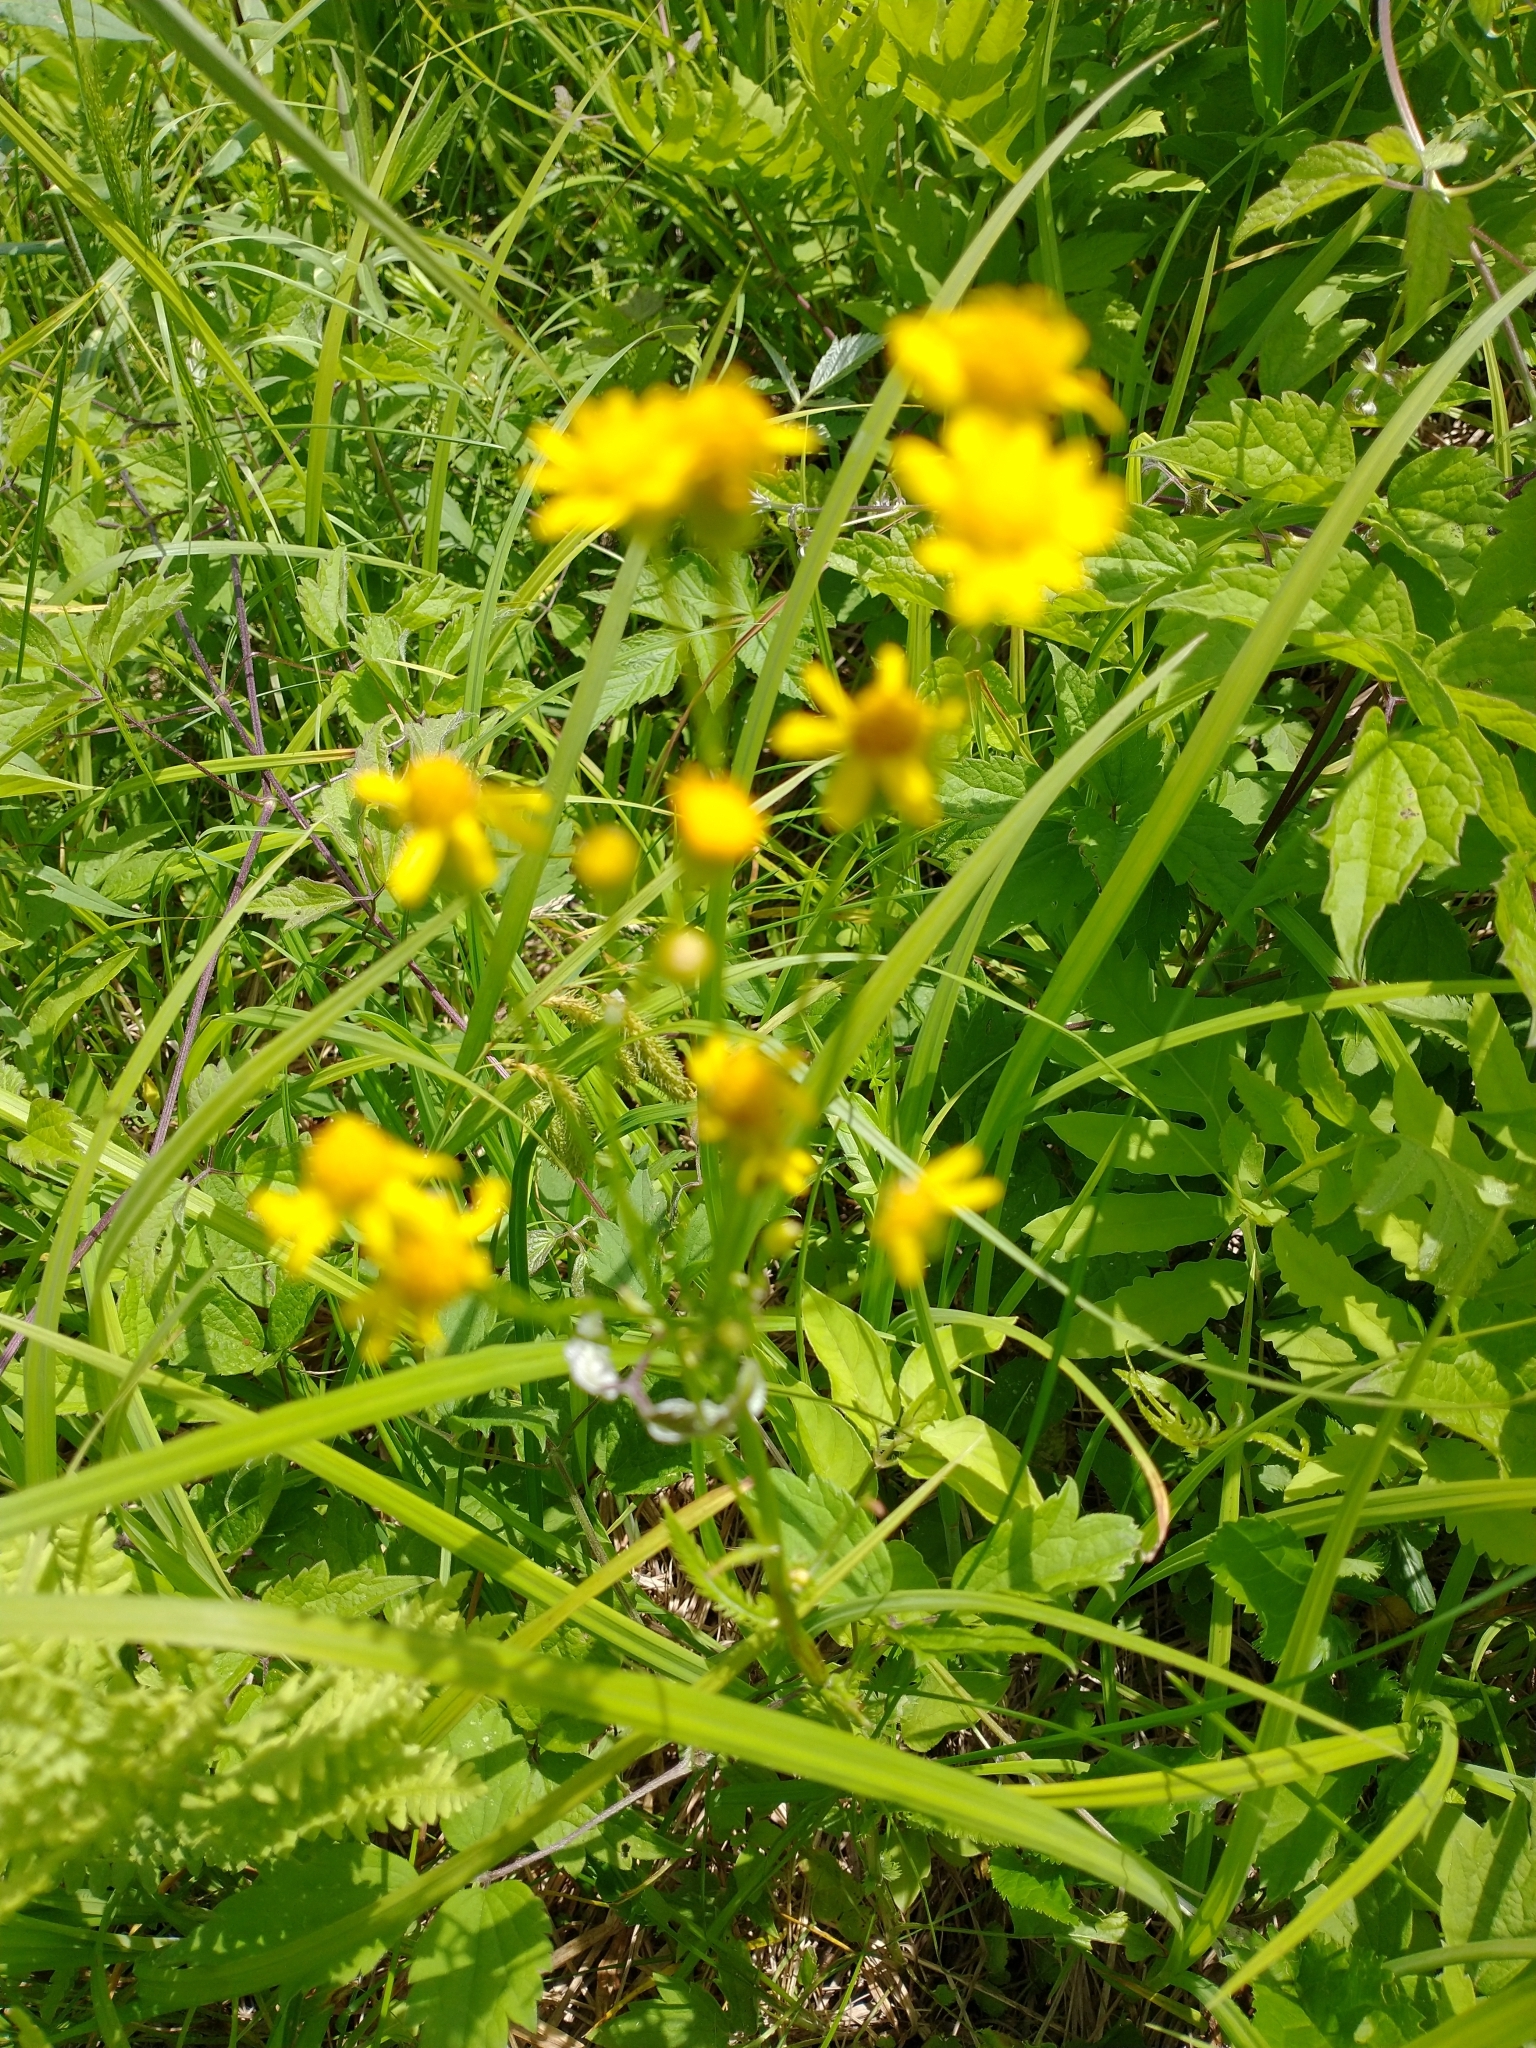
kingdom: Plantae
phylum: Tracheophyta
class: Magnoliopsida
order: Asterales
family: Asteraceae
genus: Packera
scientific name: Packera schweinitziana
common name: Schweinitz's ragwort
